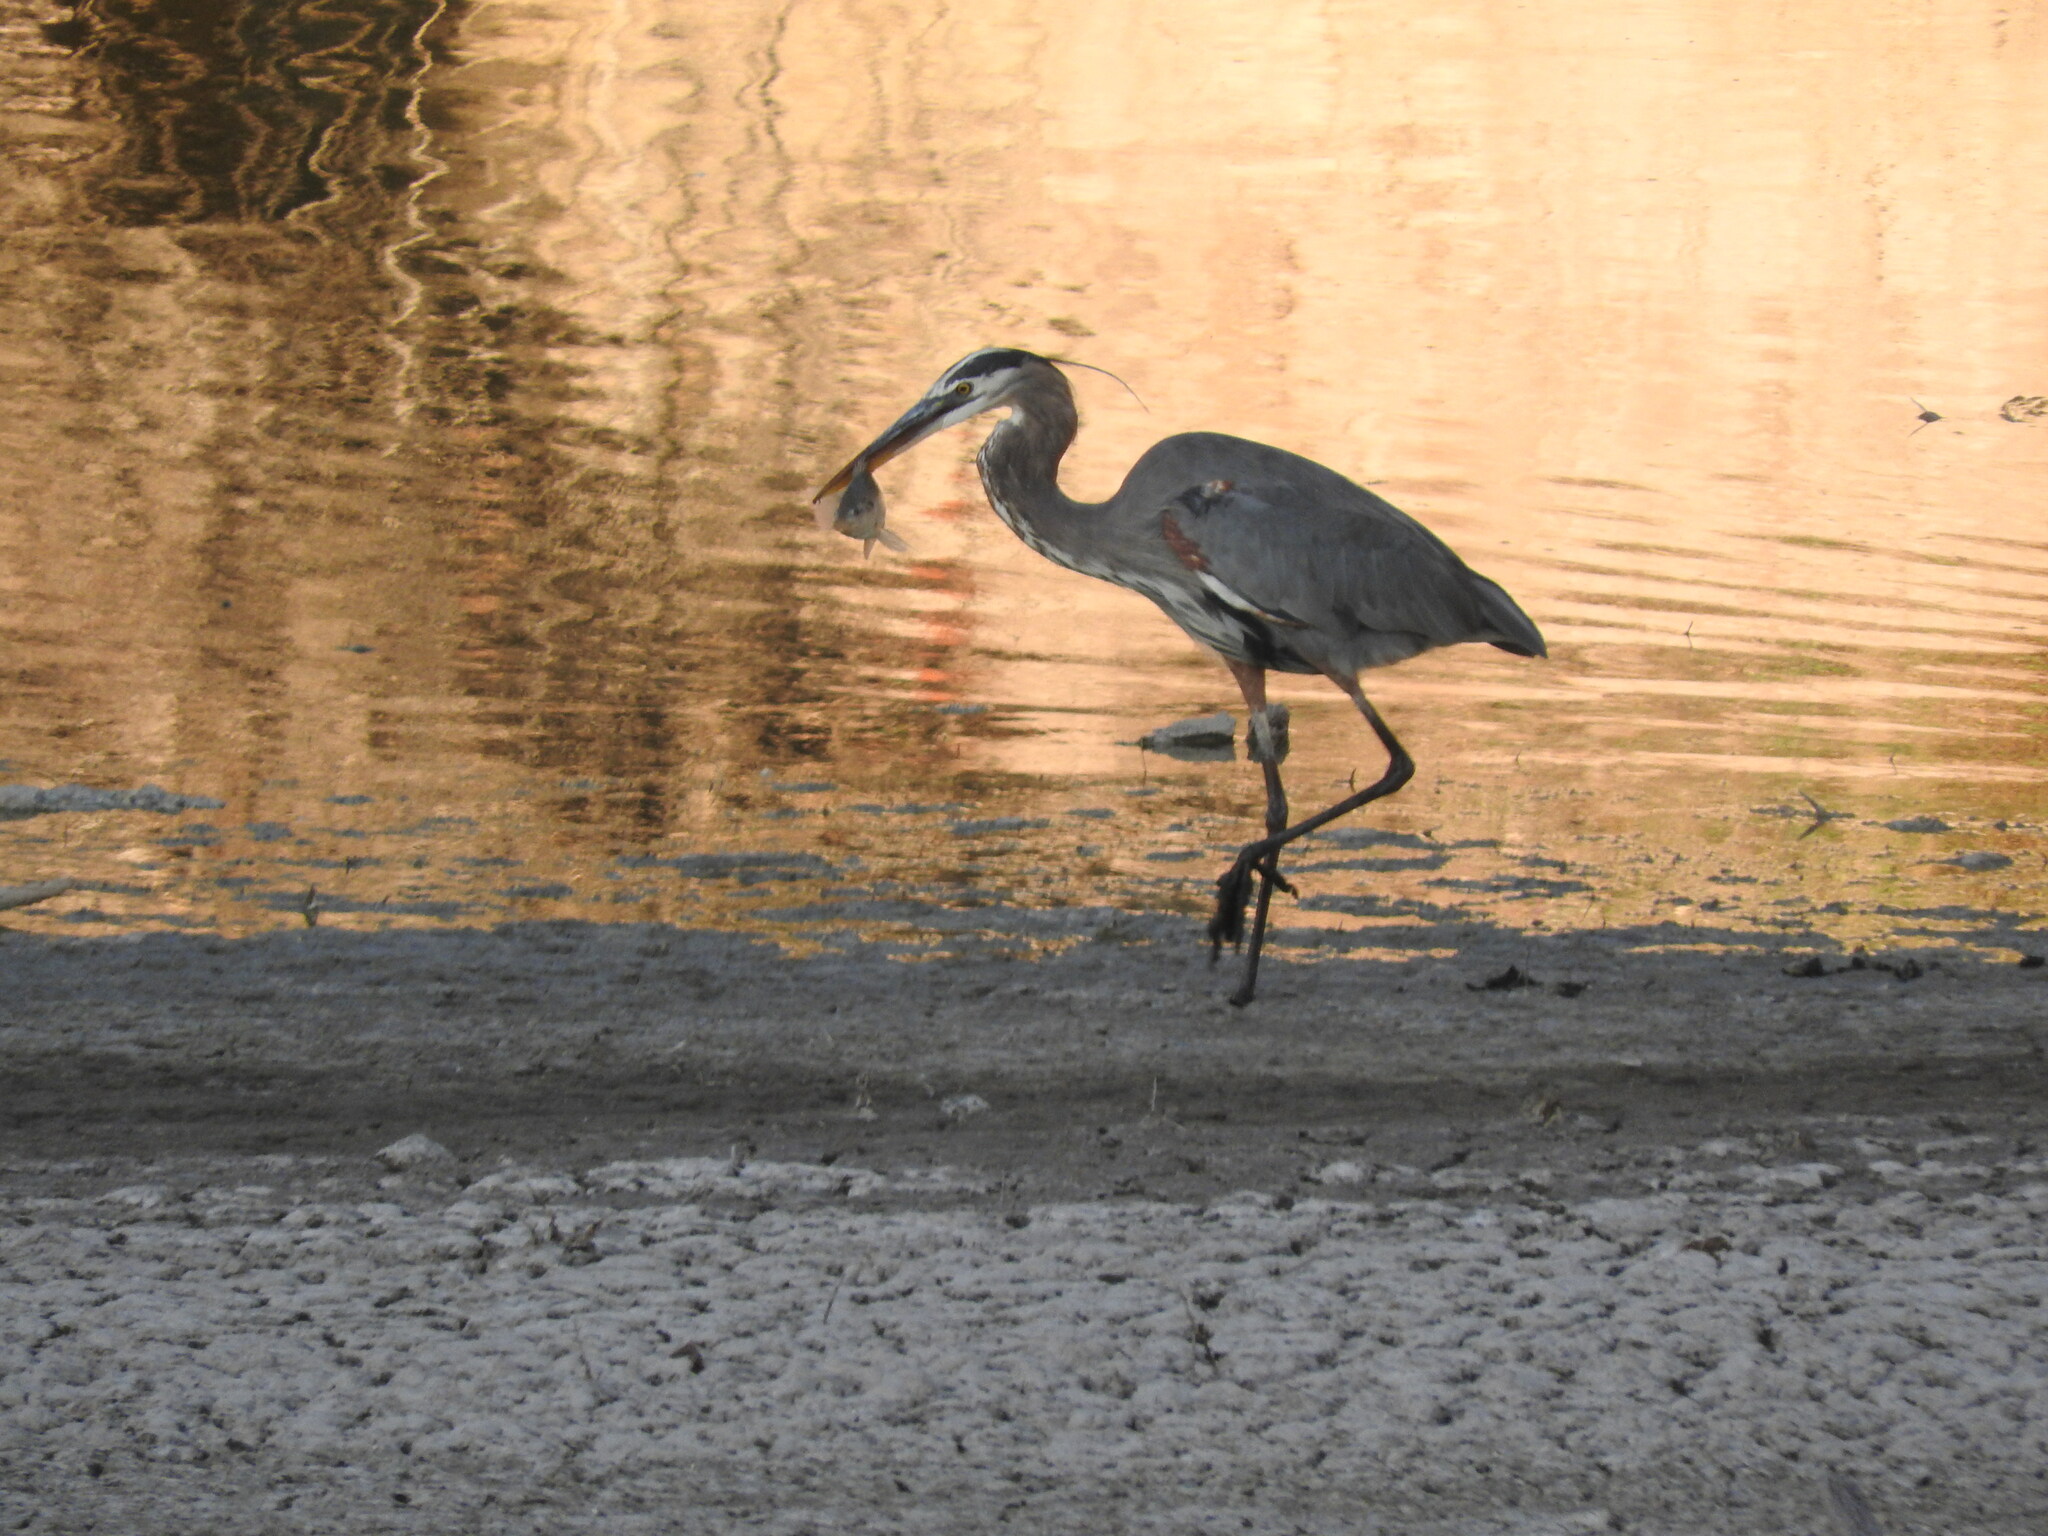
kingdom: Animalia
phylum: Chordata
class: Aves
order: Pelecaniformes
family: Ardeidae
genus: Ardea
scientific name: Ardea herodias
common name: Great blue heron
